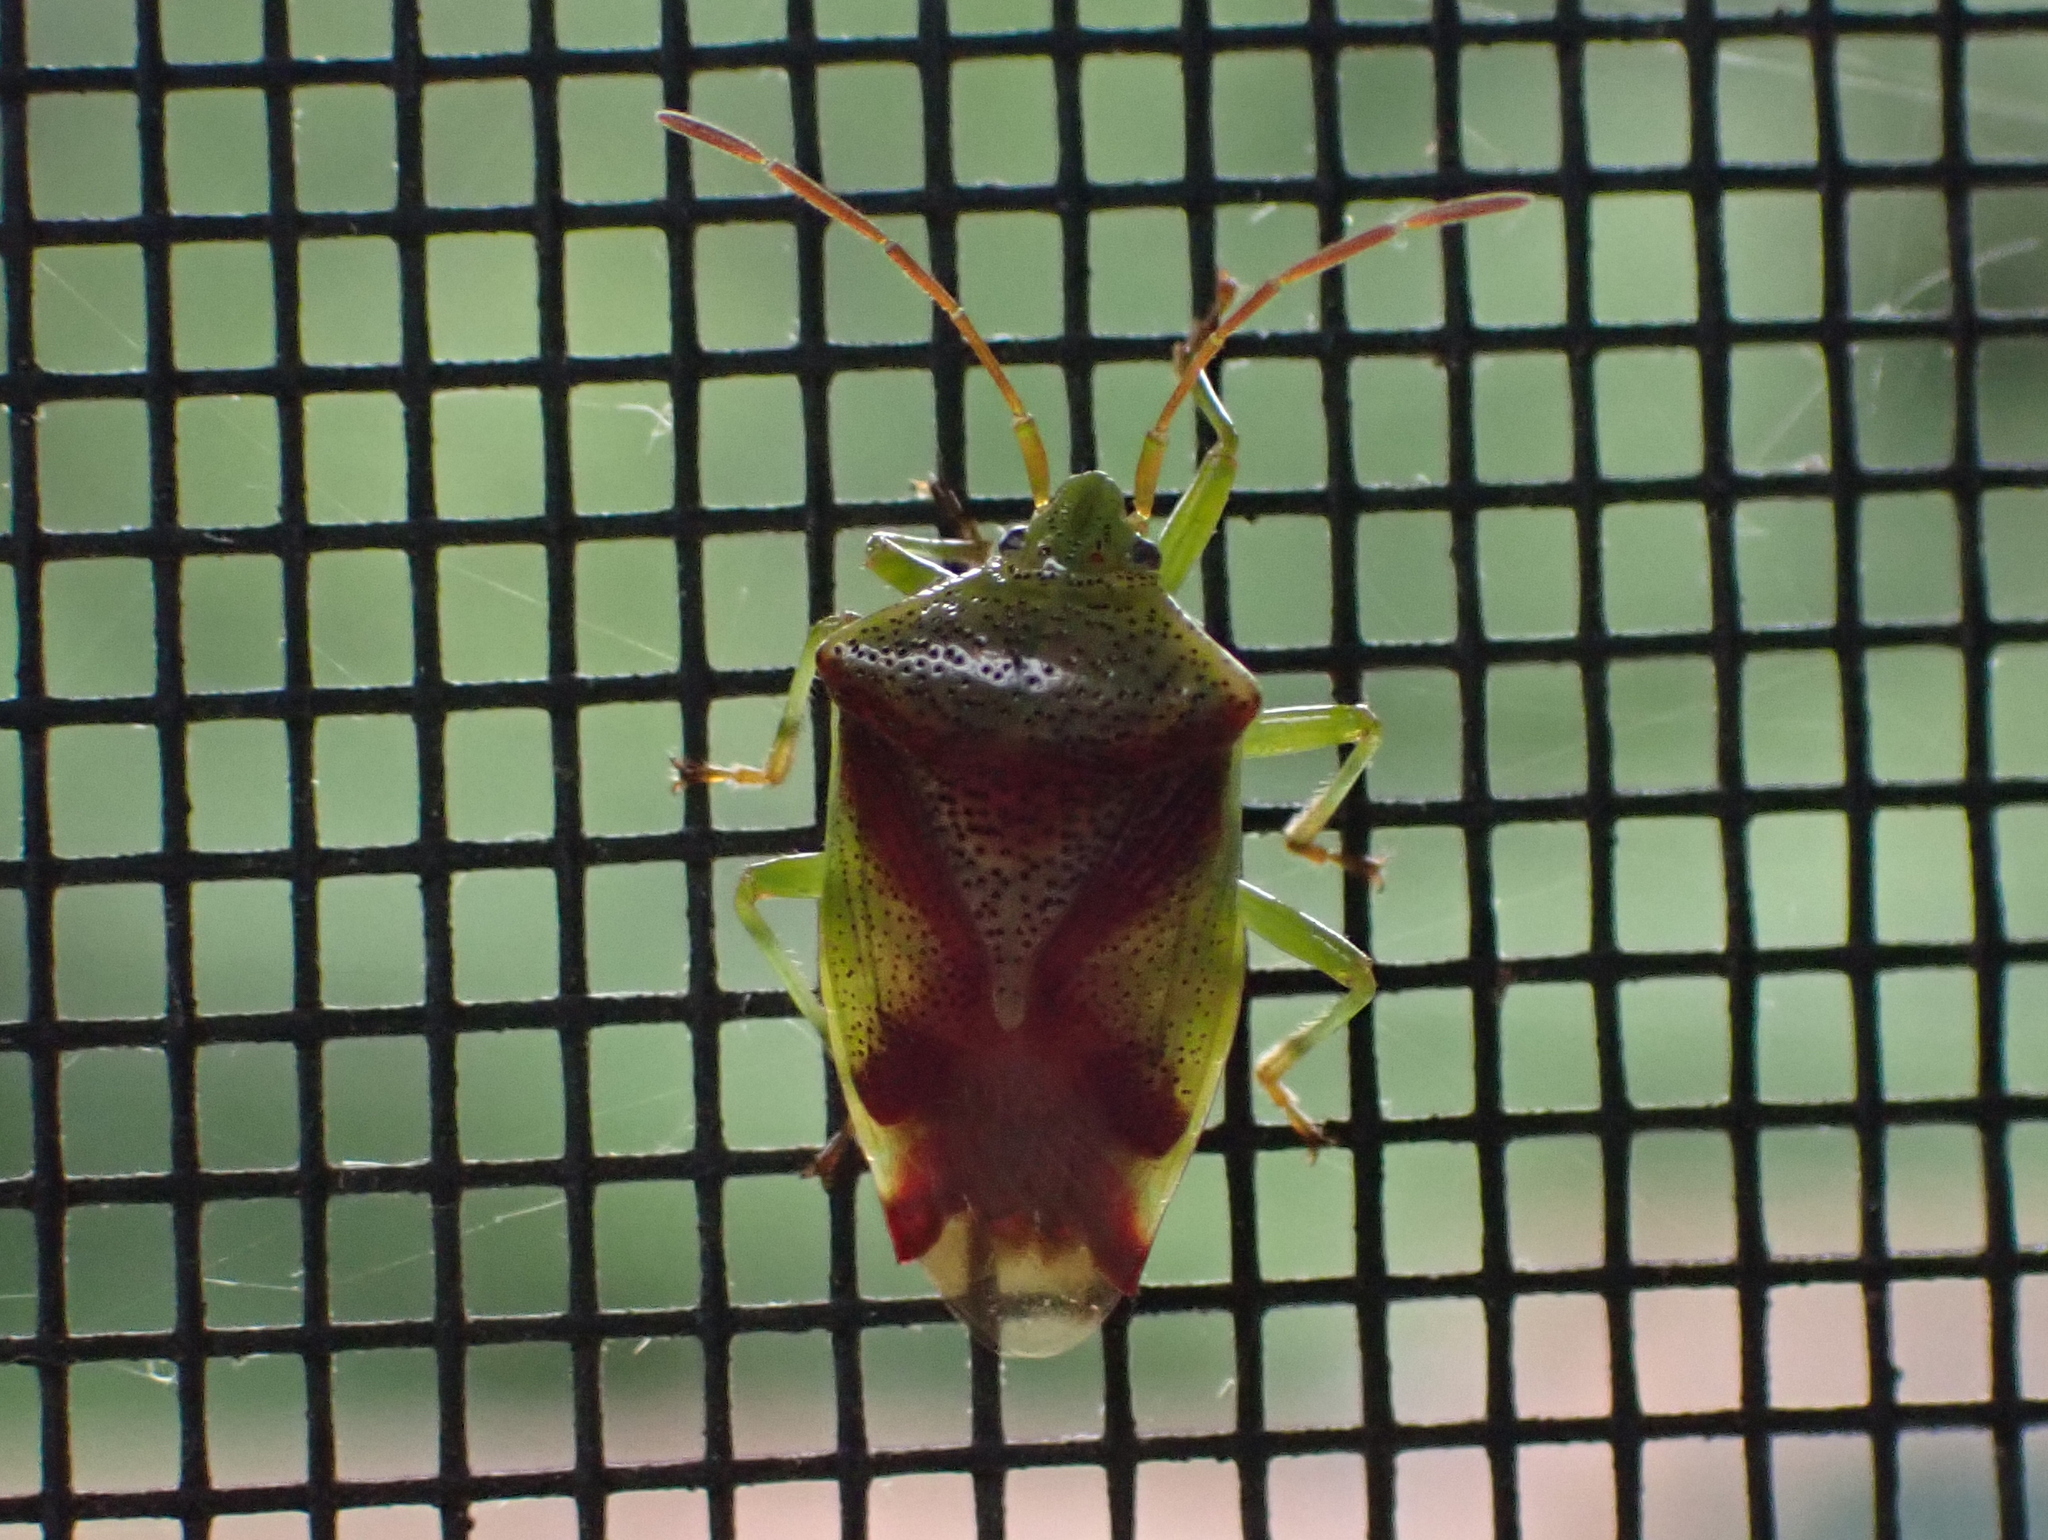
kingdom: Animalia
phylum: Arthropoda
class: Insecta
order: Hemiptera
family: Acanthosomatidae
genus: Elasmostethus
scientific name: Elasmostethus cruciatus
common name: Red-cross shield bug
